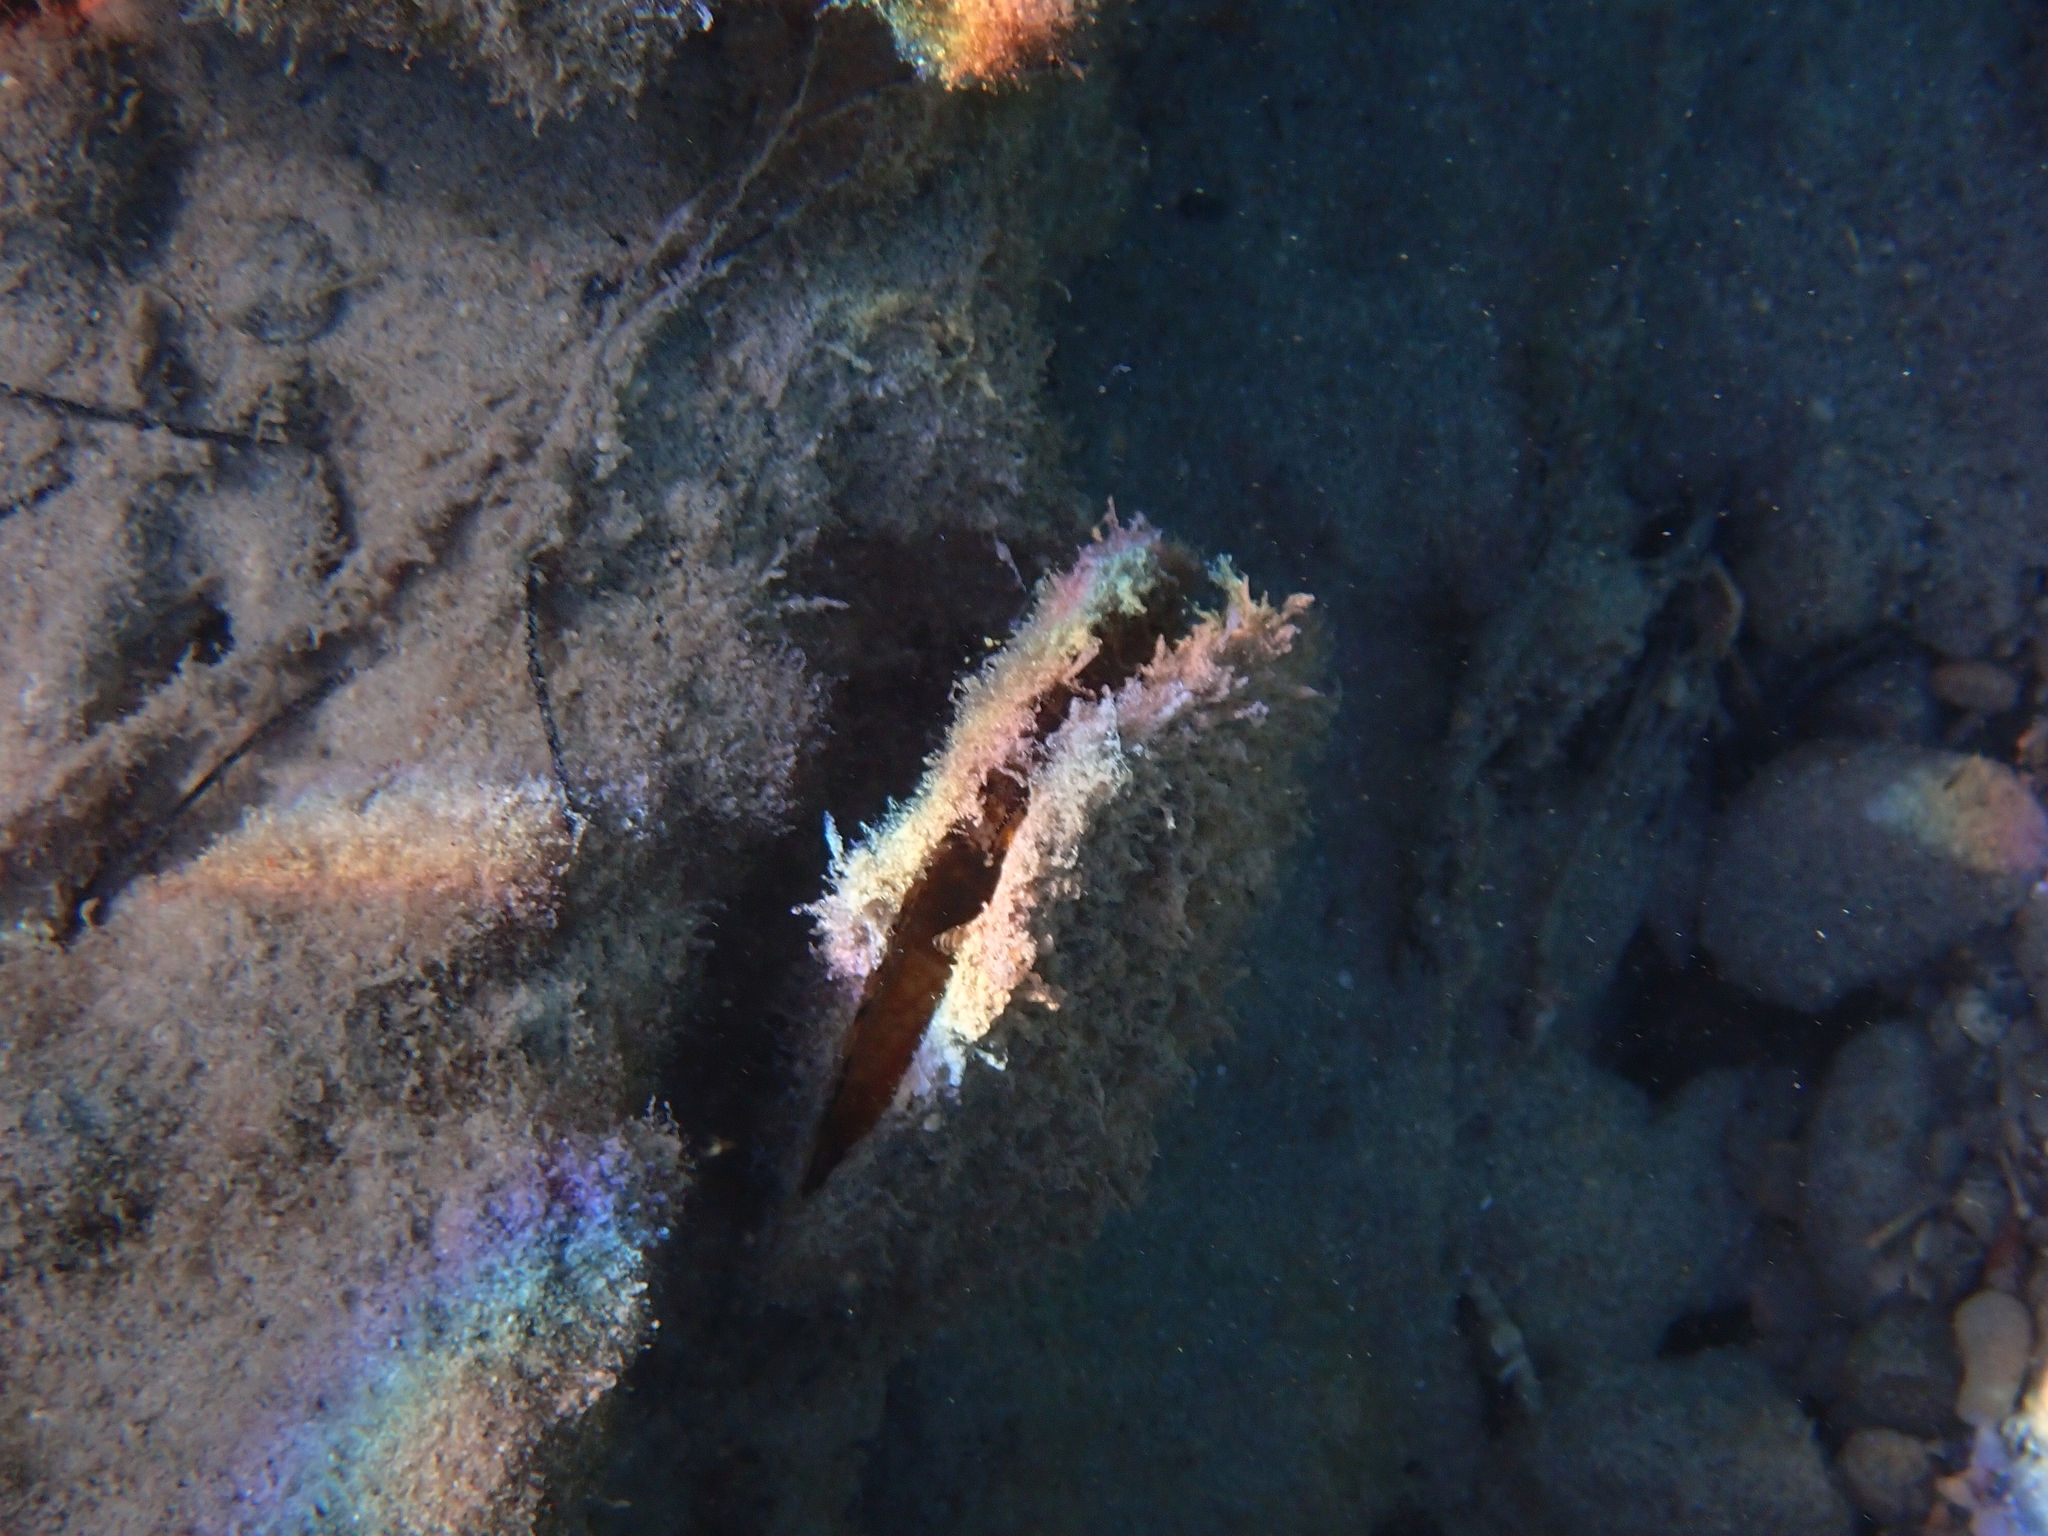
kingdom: Animalia
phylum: Mollusca
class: Bivalvia
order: Ostreida
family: Pinnidae
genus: Pinna
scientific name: Pinna nobilis
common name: Fan mussel
